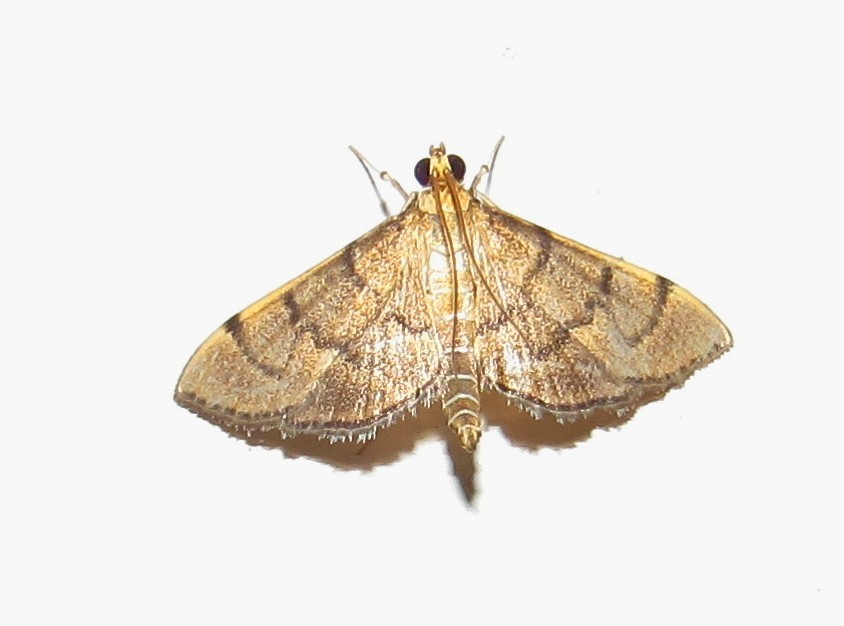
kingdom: Animalia
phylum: Arthropoda
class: Insecta
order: Lepidoptera
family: Crambidae
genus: Omiodes
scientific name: Omiodes indicata
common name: Bean-leaf webworm moth
